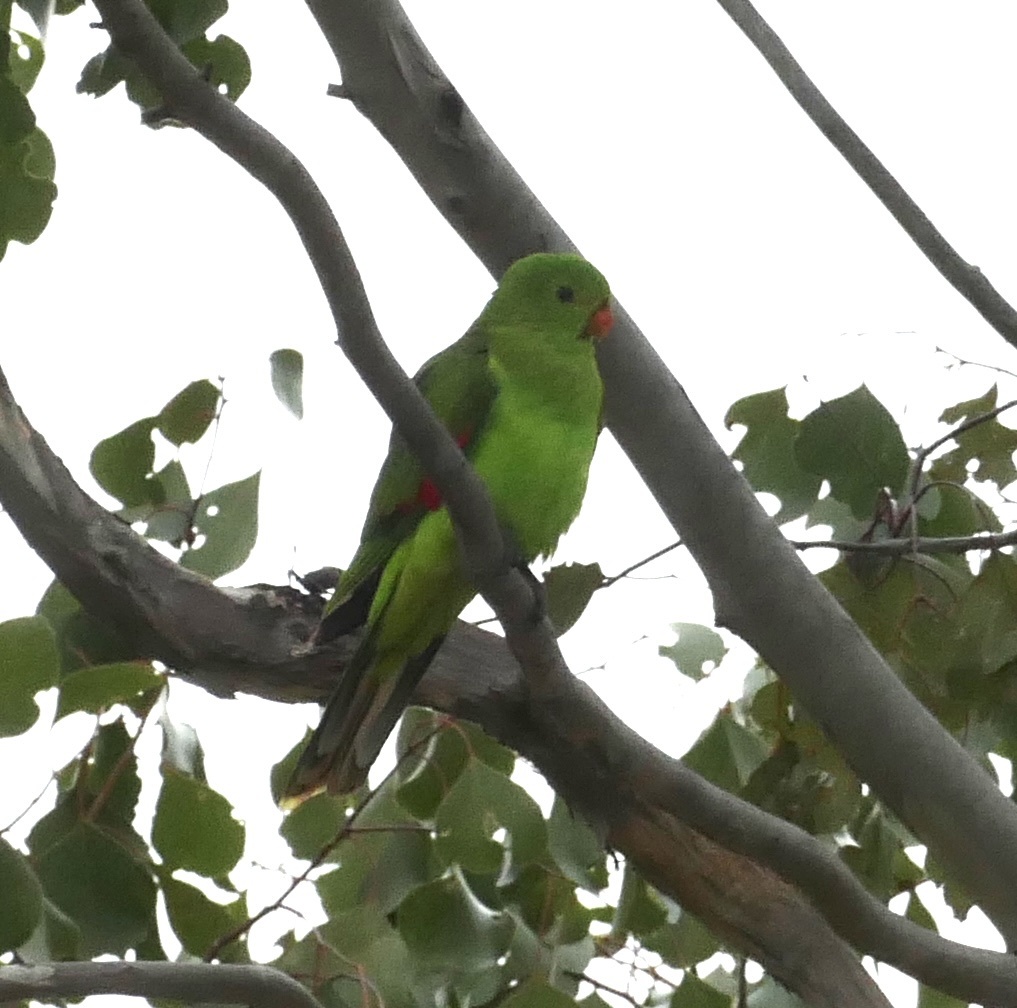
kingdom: Animalia
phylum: Chordata
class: Aves
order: Psittaciformes
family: Psittacidae
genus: Aprosmictus
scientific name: Aprosmictus erythropterus
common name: Red-winged parrot
